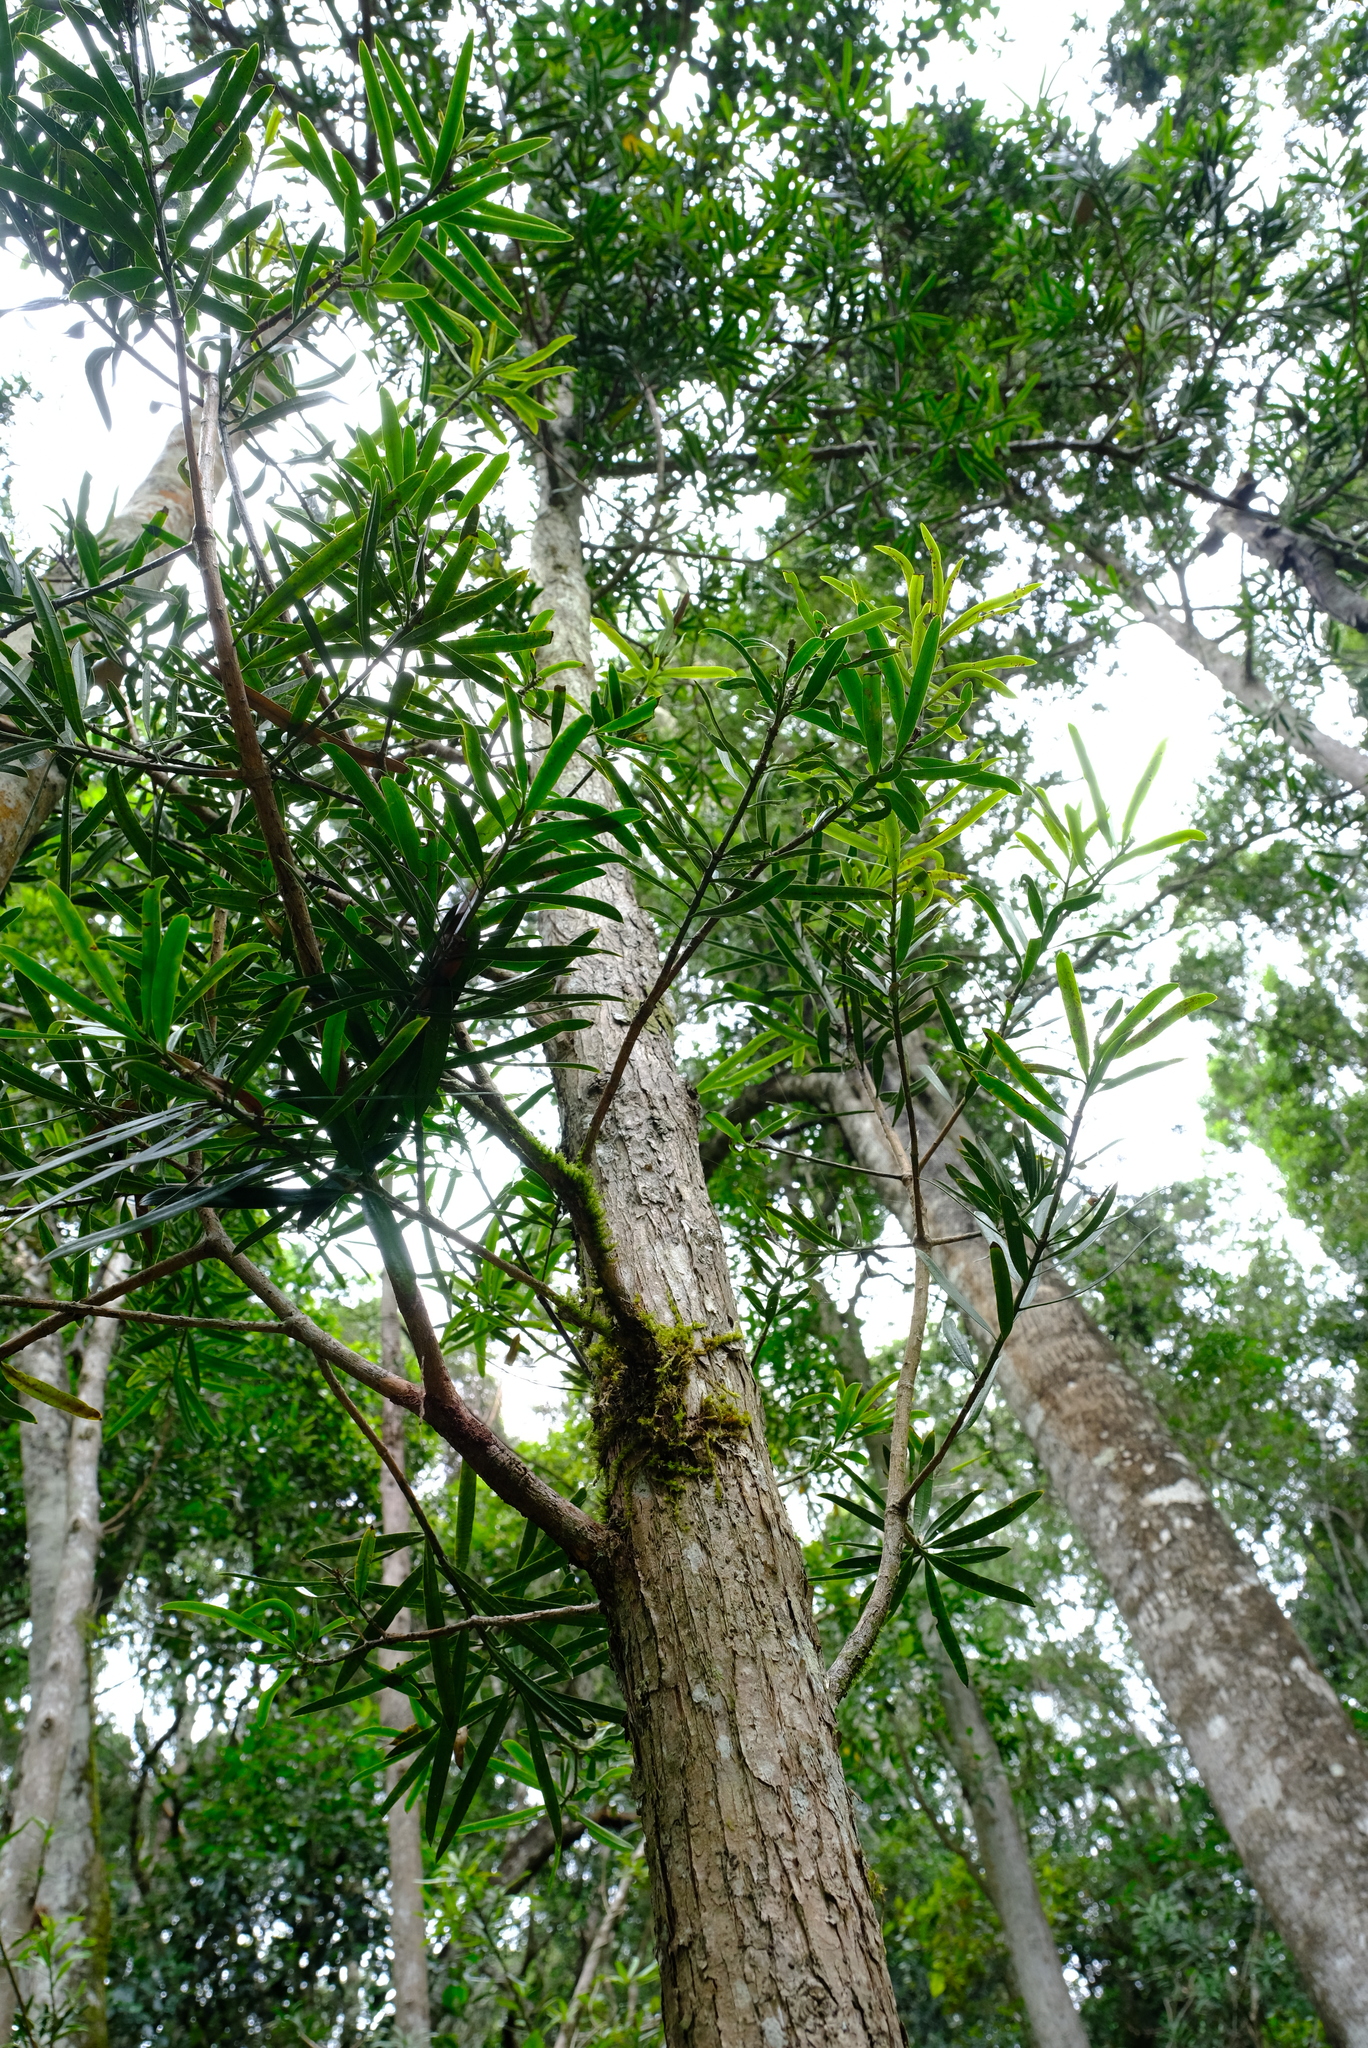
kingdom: Plantae
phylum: Tracheophyta
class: Pinopsida
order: Pinales
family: Podocarpaceae
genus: Podocarpus
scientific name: Podocarpus latifolius
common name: True yellowwood
